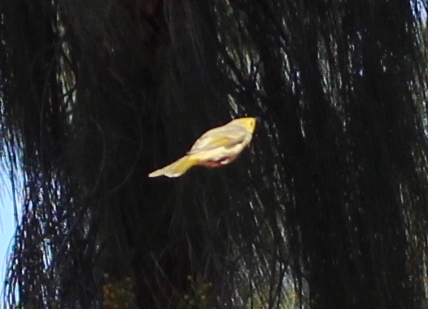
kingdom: Animalia
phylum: Chordata
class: Aves
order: Passeriformes
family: Meliphagidae
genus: Ptilotula
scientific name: Ptilotula penicillata
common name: White-plumed honeyeater
